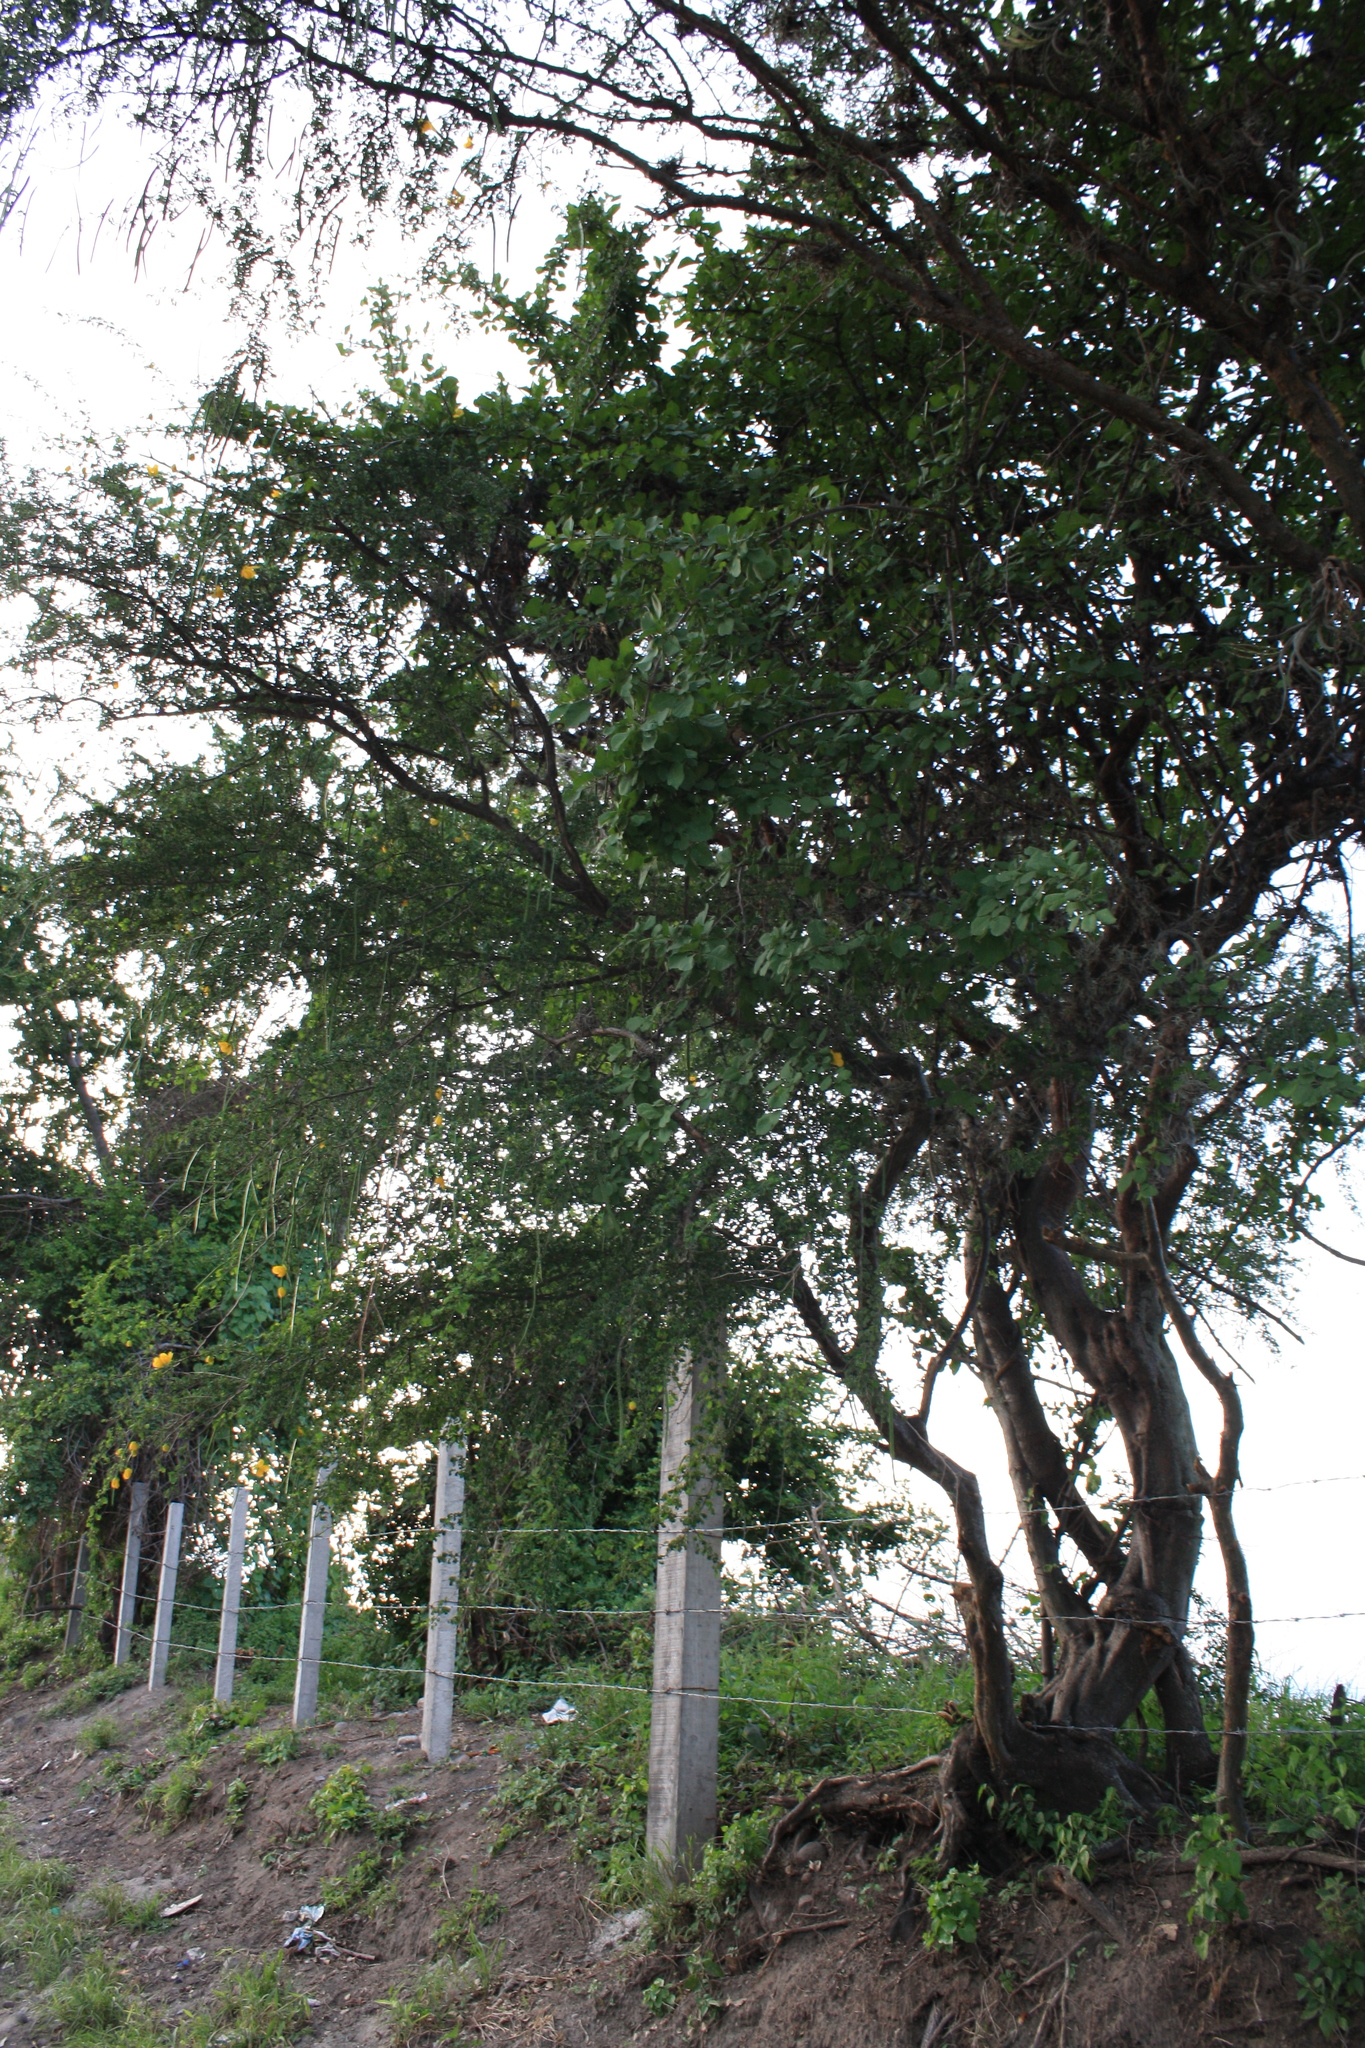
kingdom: Plantae
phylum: Tracheophyta
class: Magnoliopsida
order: Fabales
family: Fabaceae
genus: Senna
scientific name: Senna wislizeni
